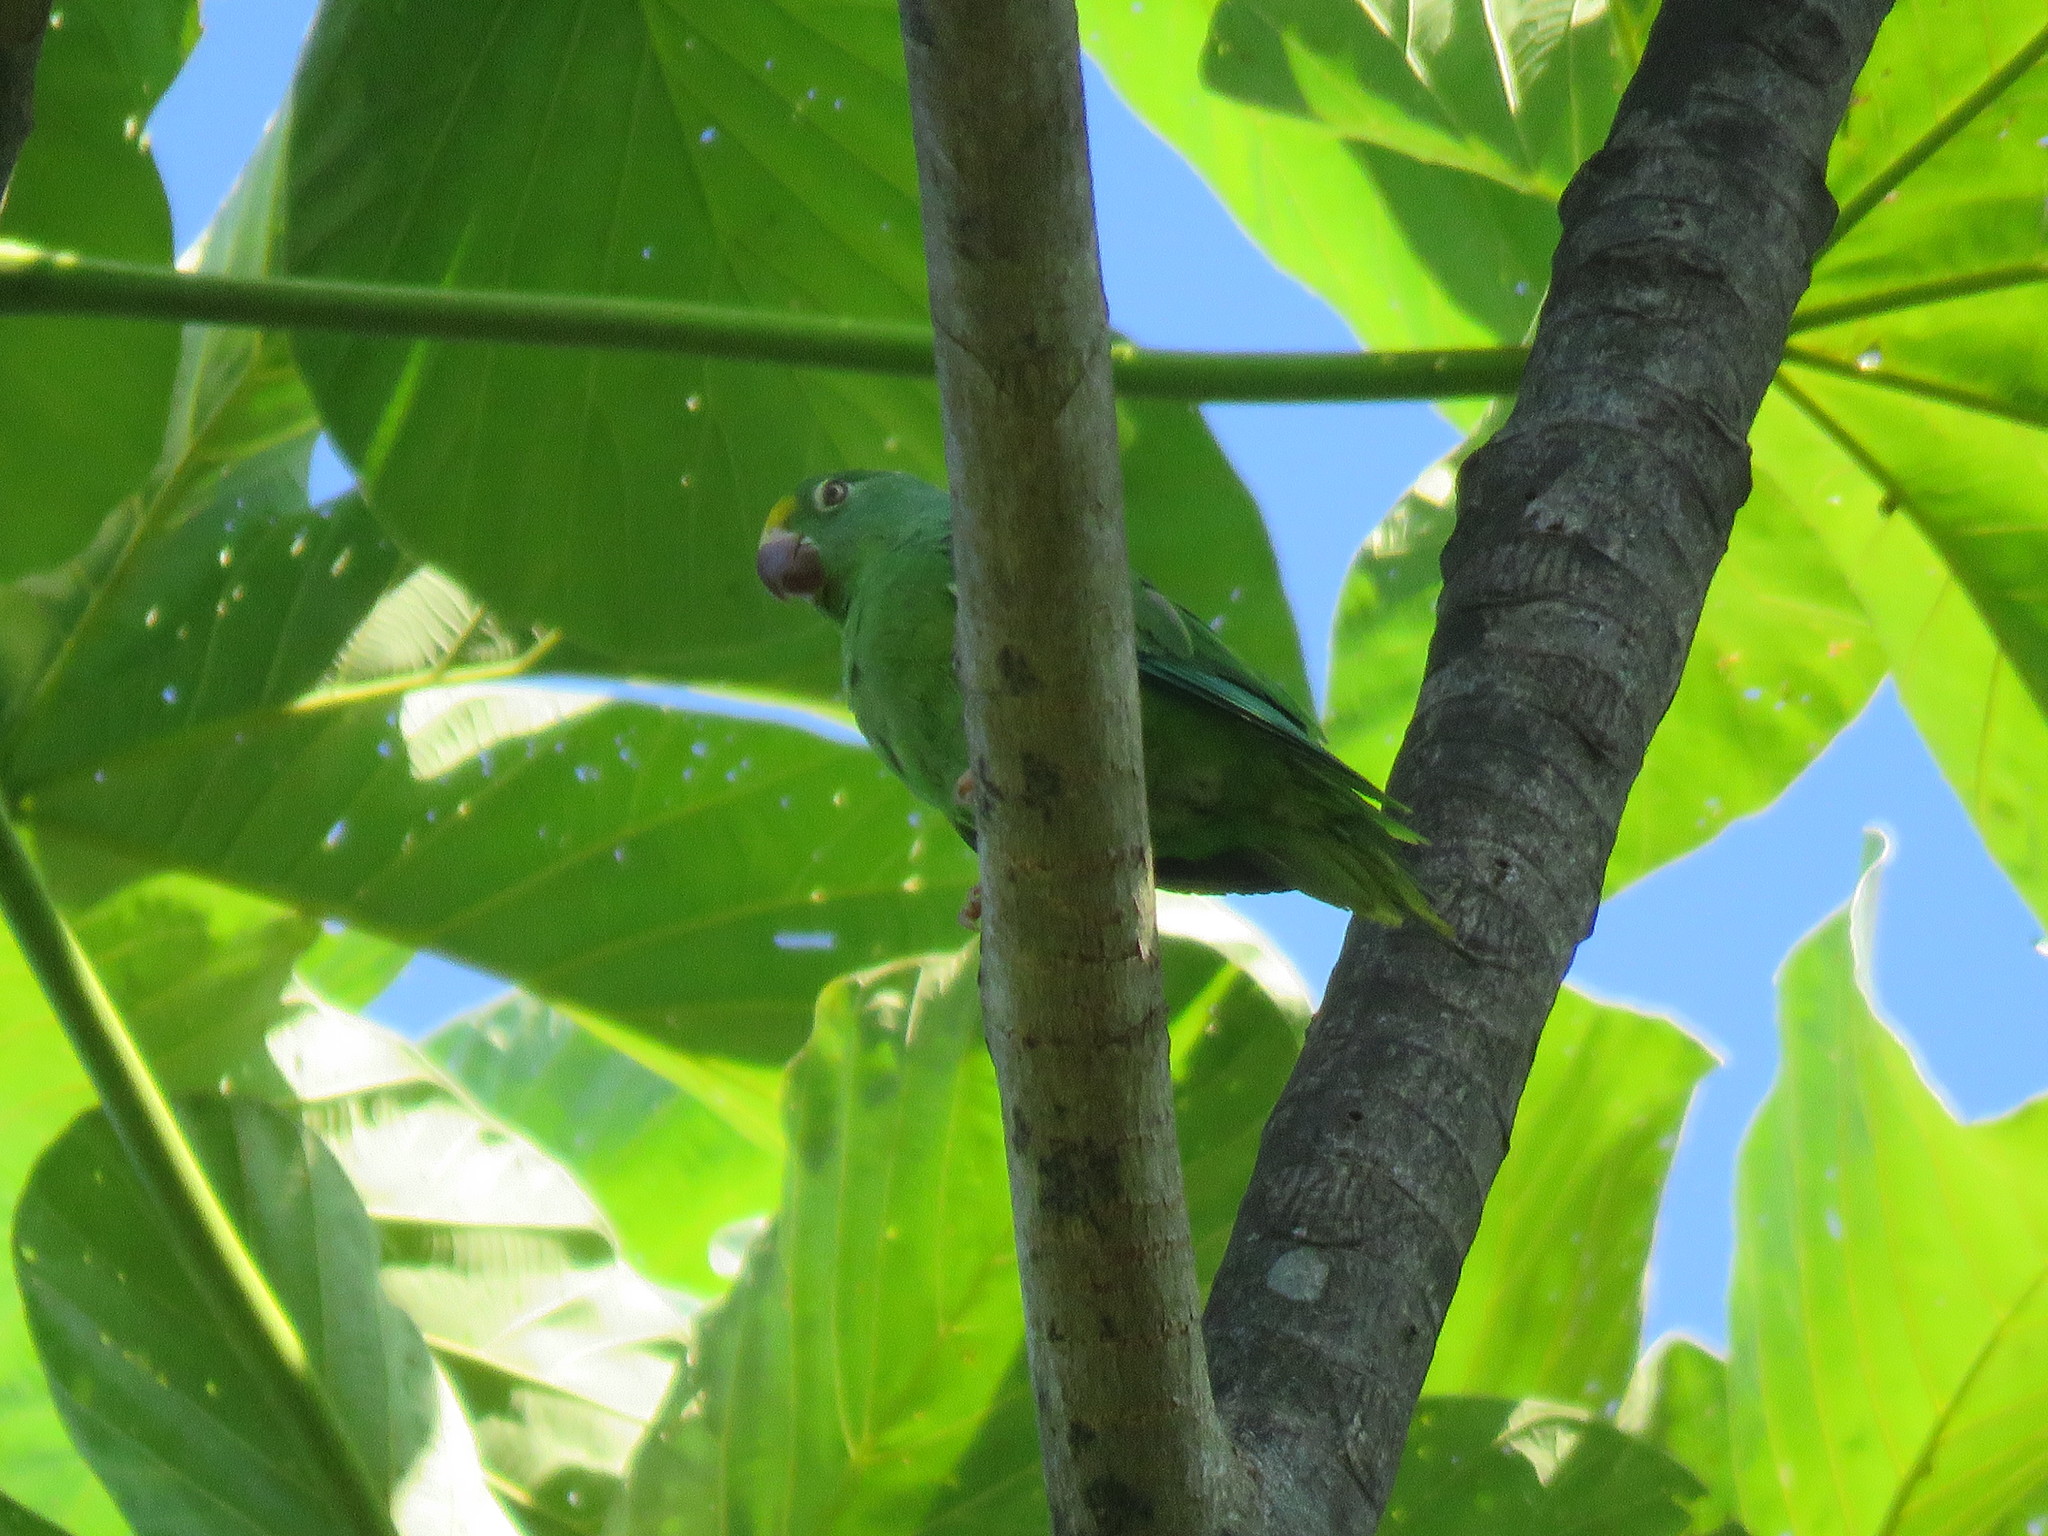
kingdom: Animalia
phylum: Chordata
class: Aves
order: Psittaciformes
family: Psittacidae
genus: Brotogeris
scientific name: Brotogeris sanctithomae
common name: Tui parakeet
